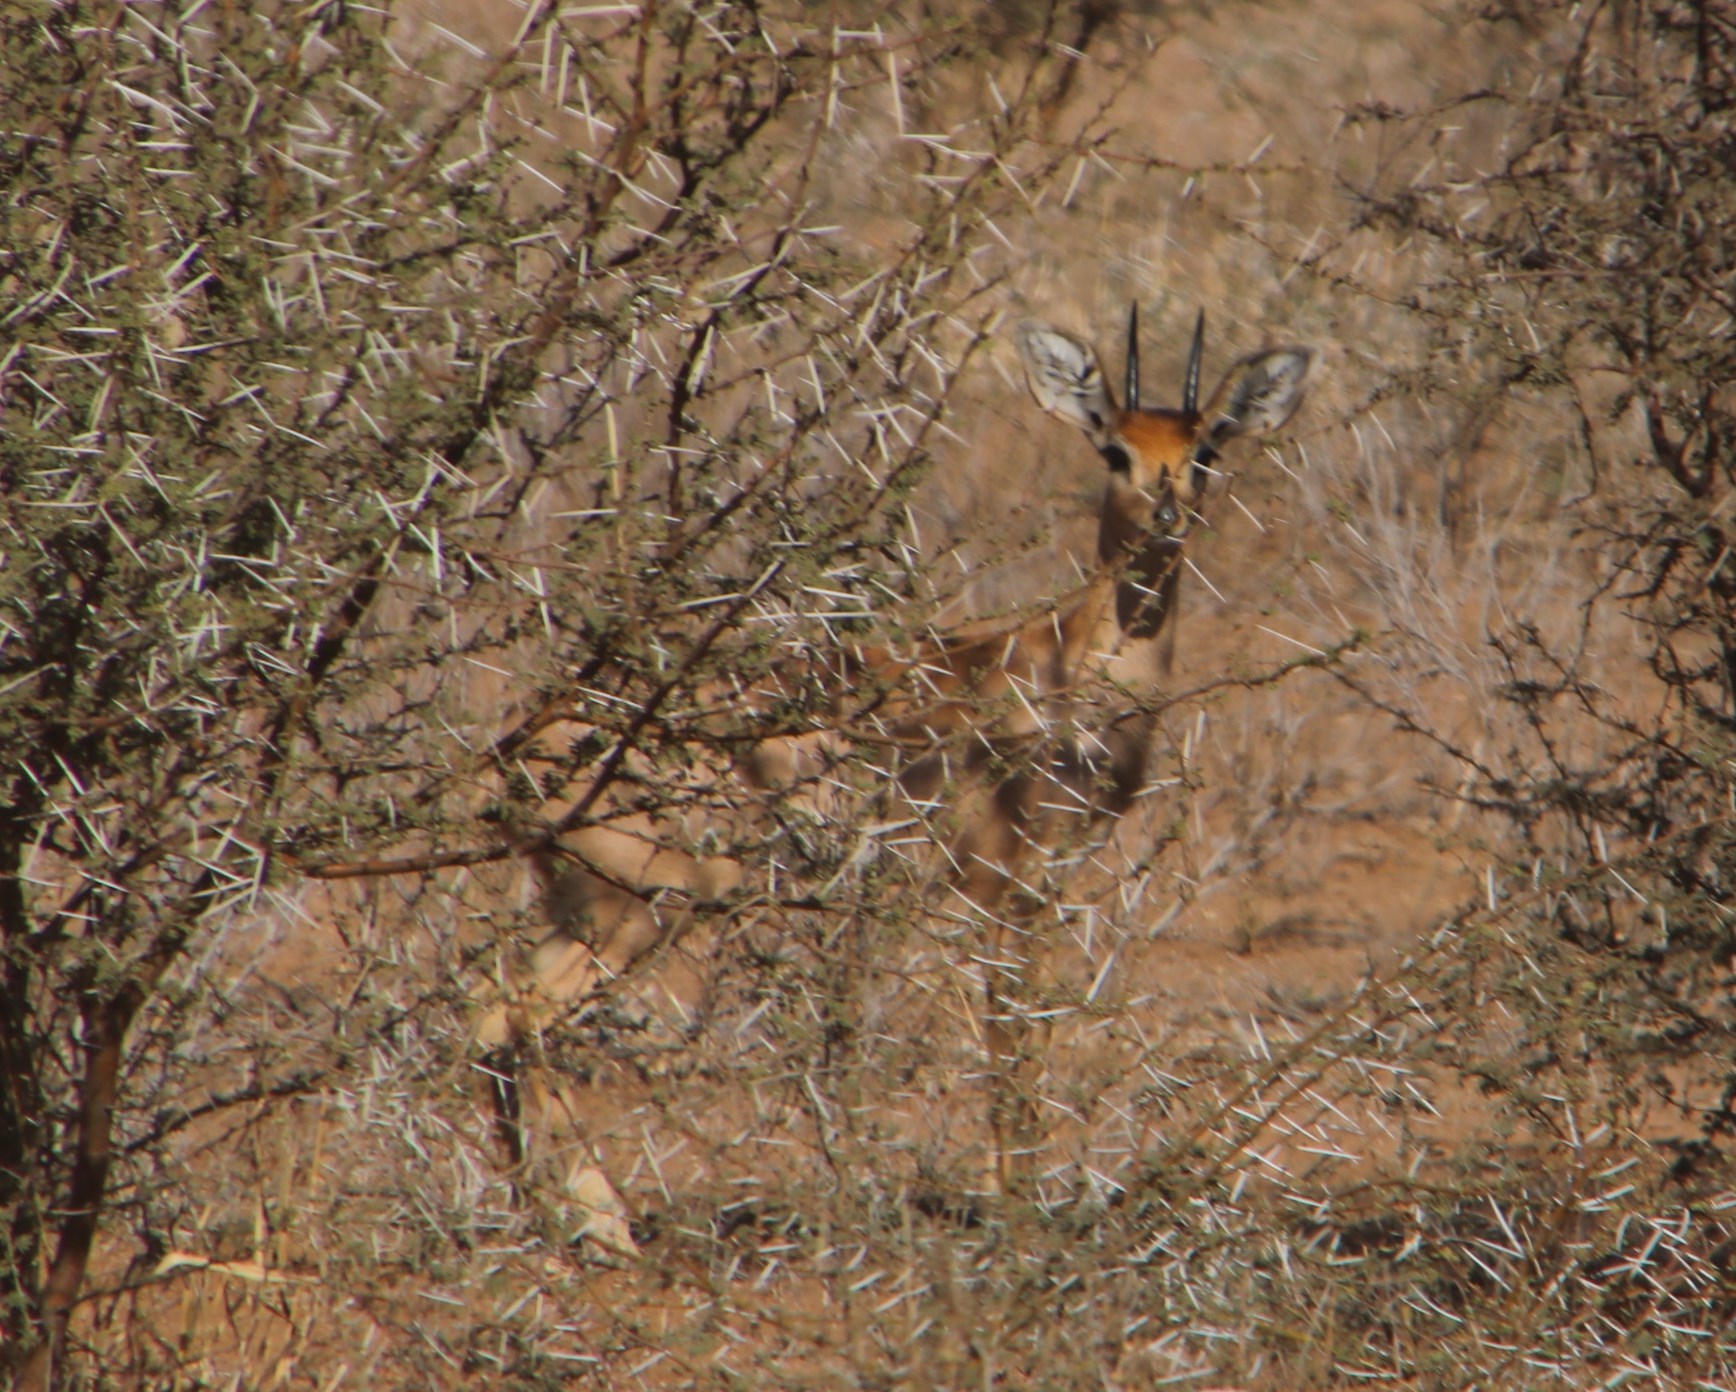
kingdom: Animalia
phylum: Chordata
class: Mammalia
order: Artiodactyla
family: Bovidae
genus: Raphicerus
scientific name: Raphicerus campestris
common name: Steenbok
